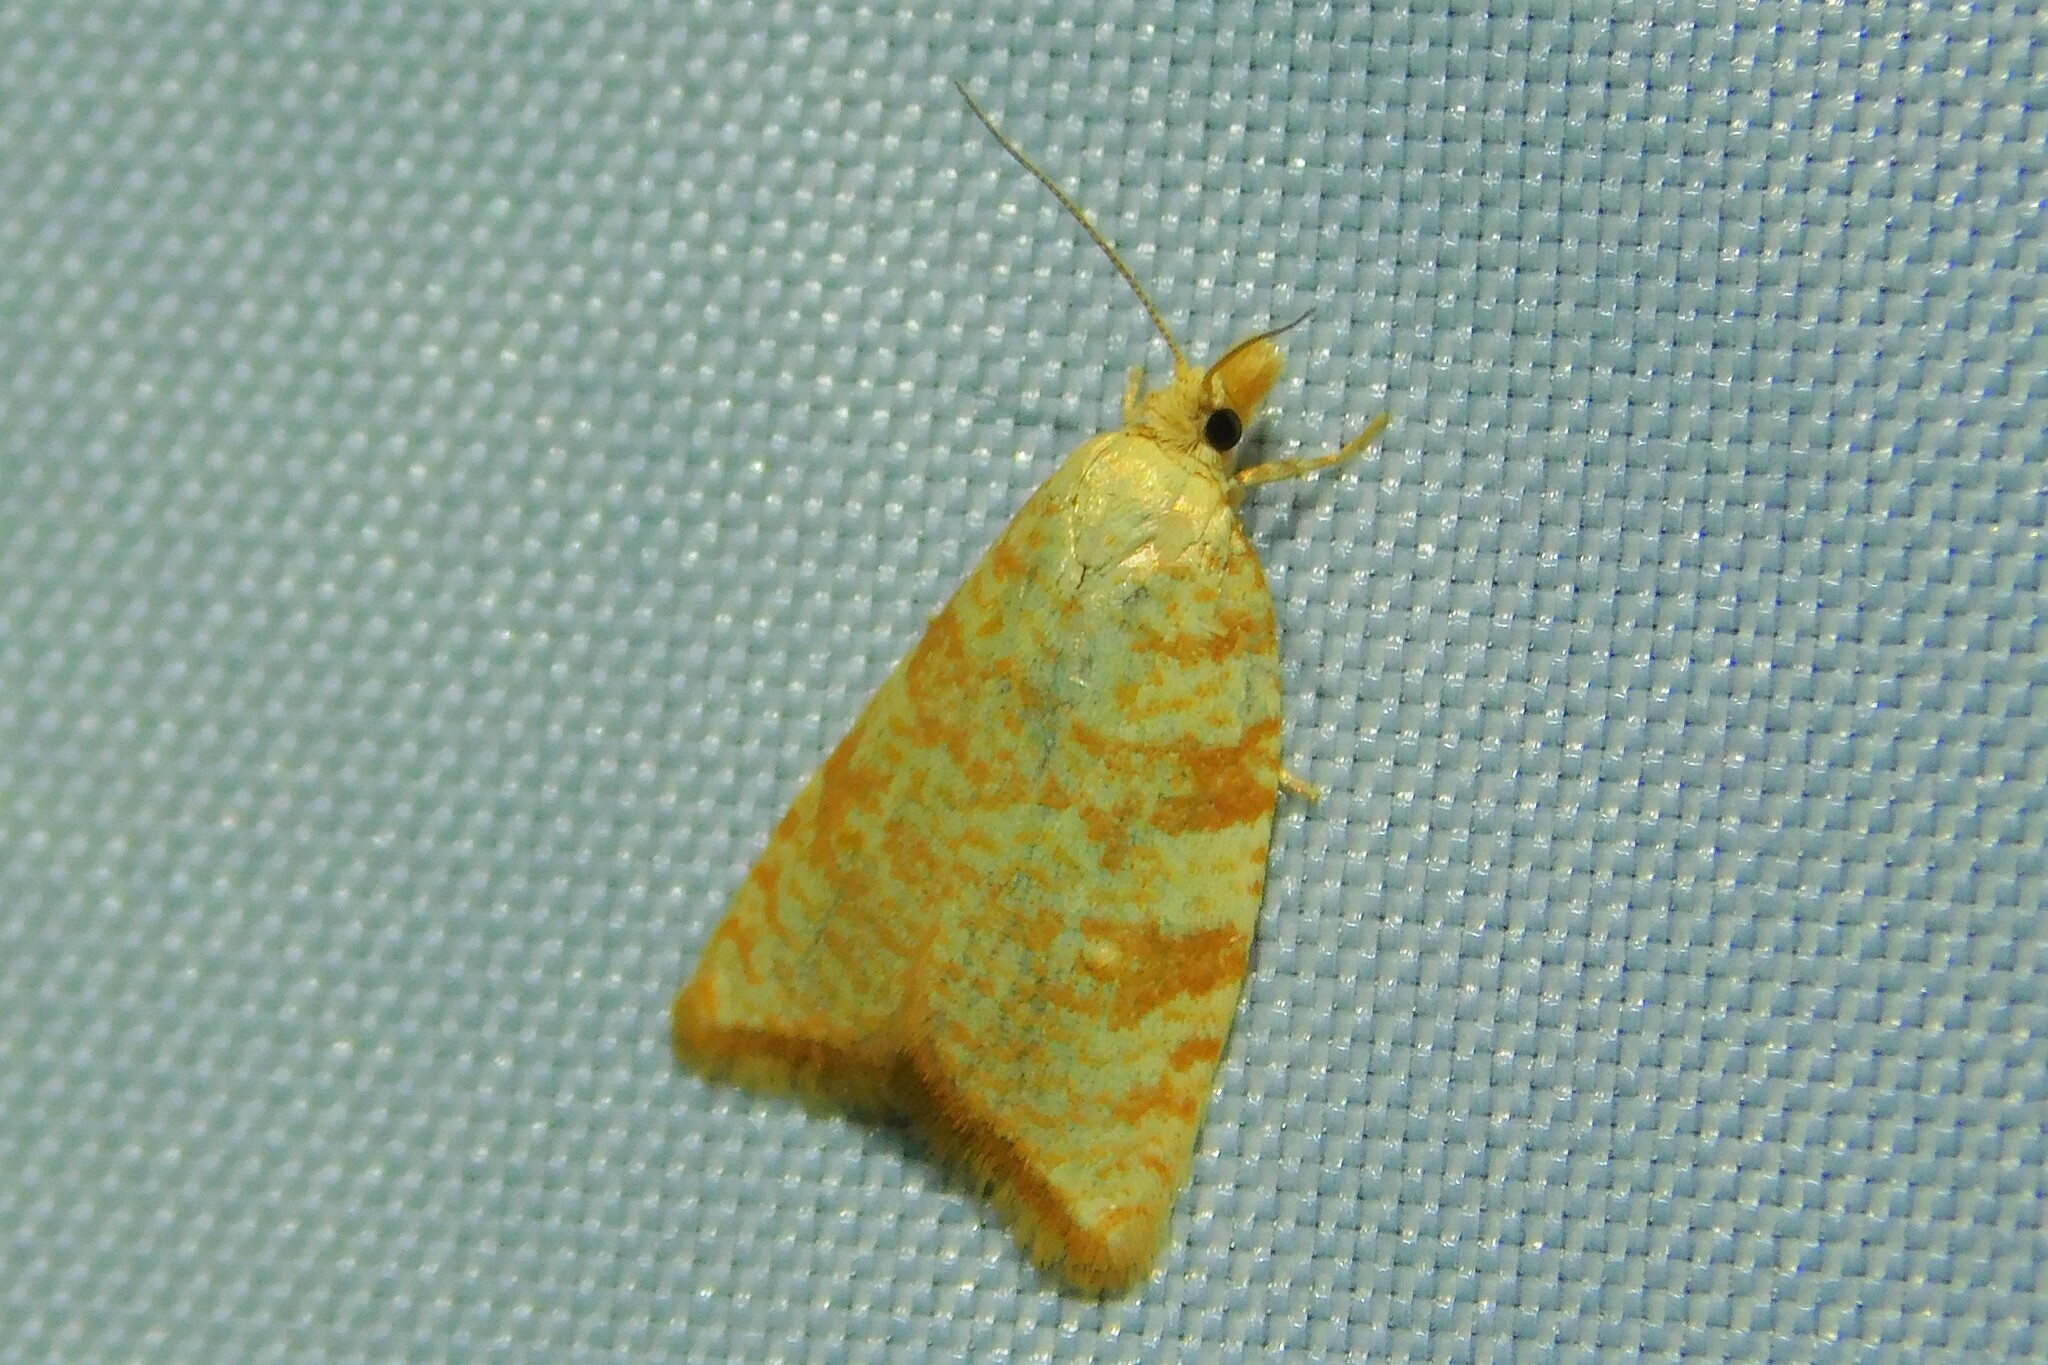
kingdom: Animalia
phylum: Arthropoda
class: Insecta
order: Lepidoptera
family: Tortricidae
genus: Aleimma
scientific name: Aleimma loeflingiana
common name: Yellow oak button
